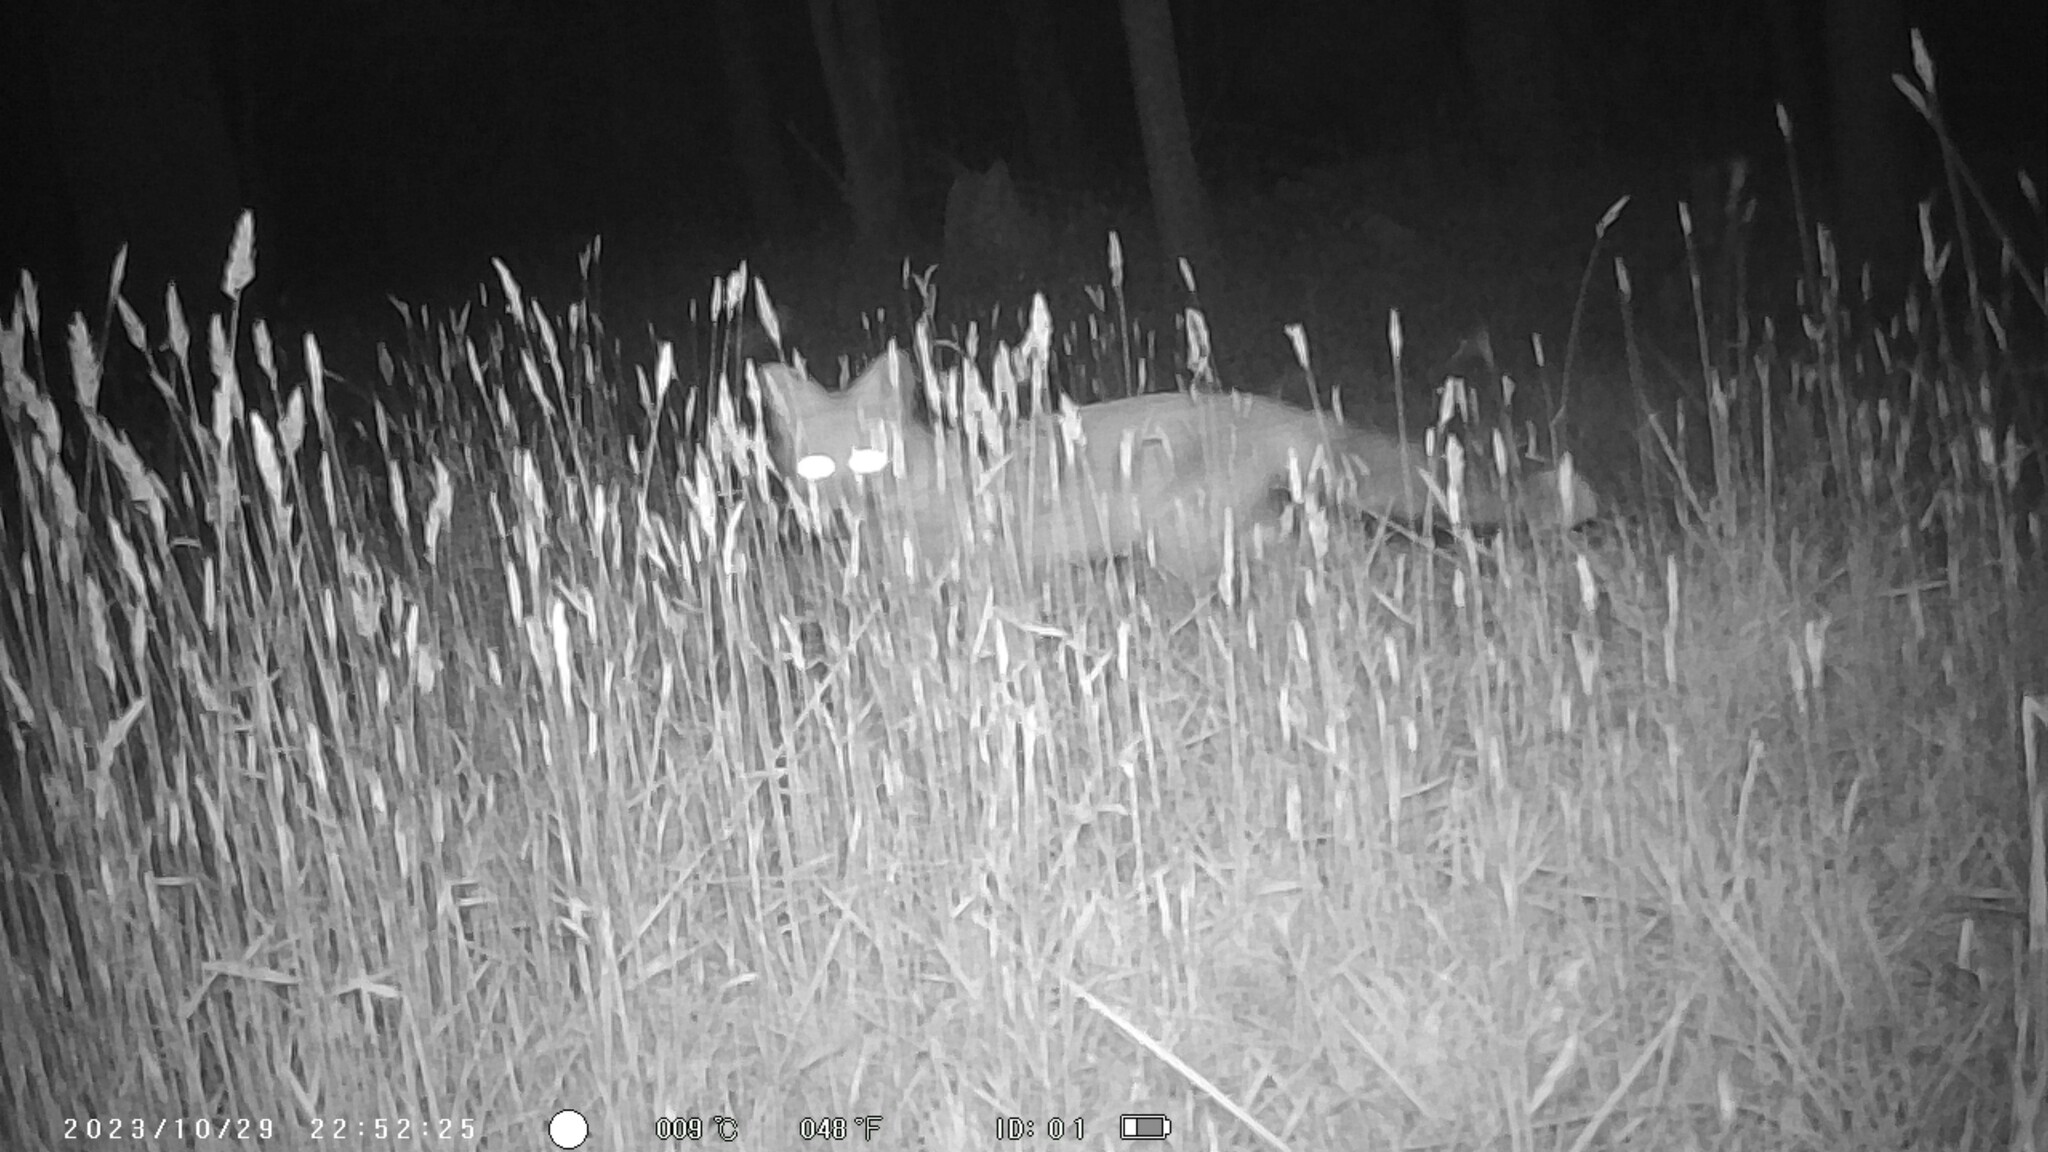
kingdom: Animalia
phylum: Chordata
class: Mammalia
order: Carnivora
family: Canidae
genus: Vulpes
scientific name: Vulpes vulpes
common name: Red fox
